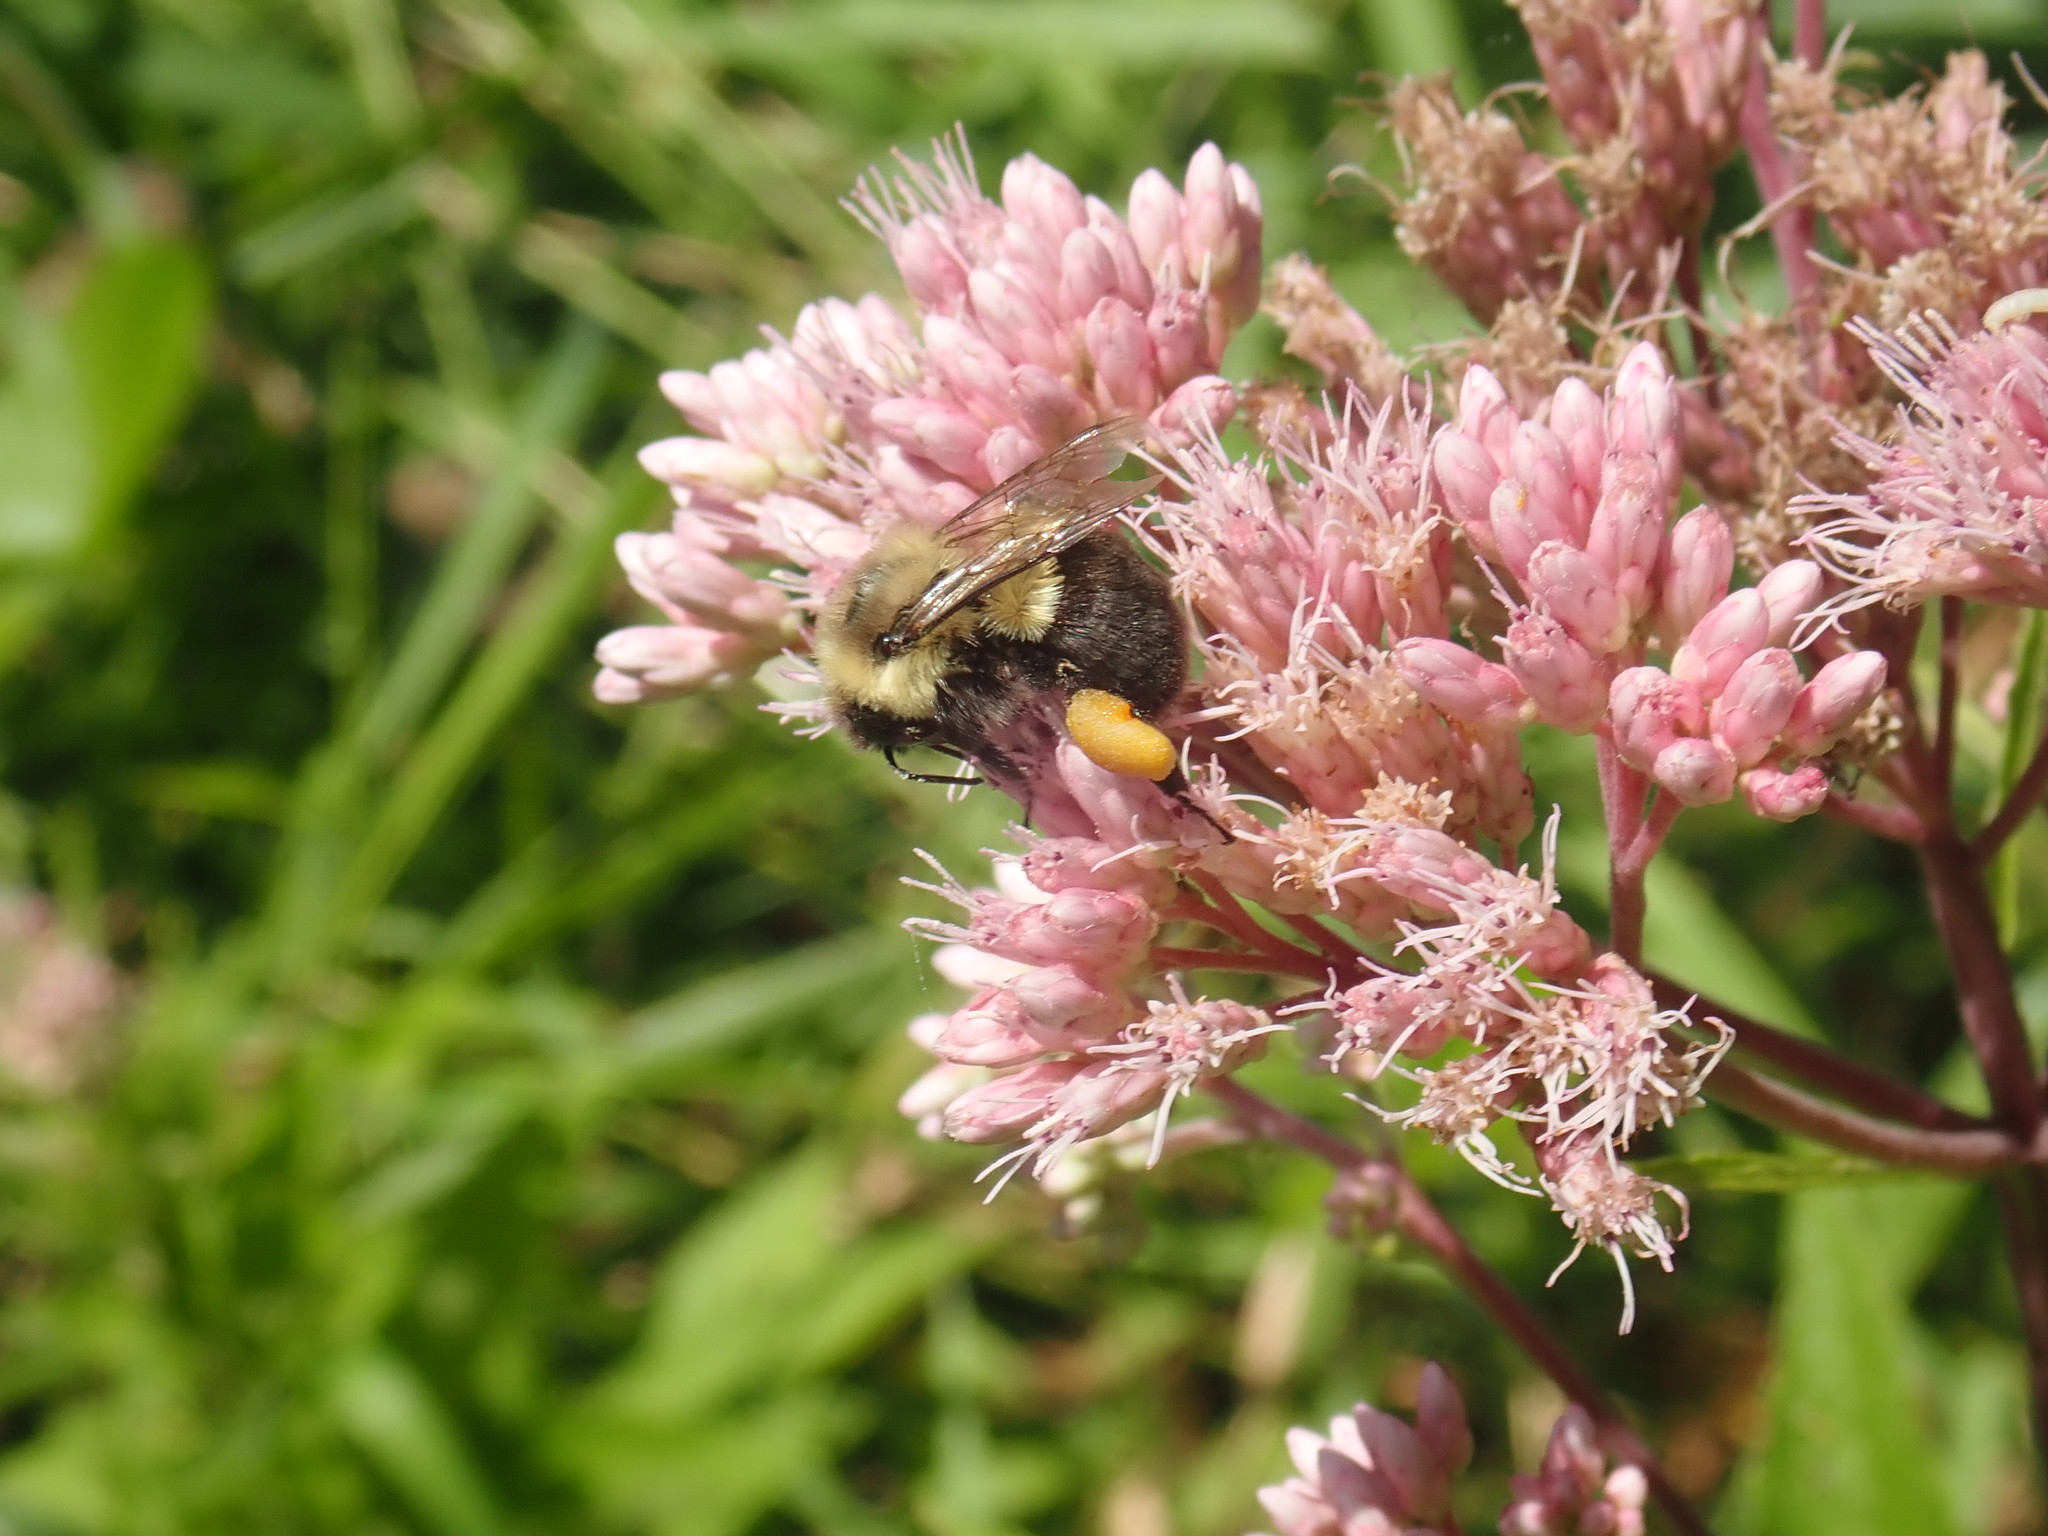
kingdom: Animalia
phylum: Arthropoda
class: Insecta
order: Hymenoptera
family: Apidae
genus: Bombus
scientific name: Bombus impatiens
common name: Common eastern bumble bee
